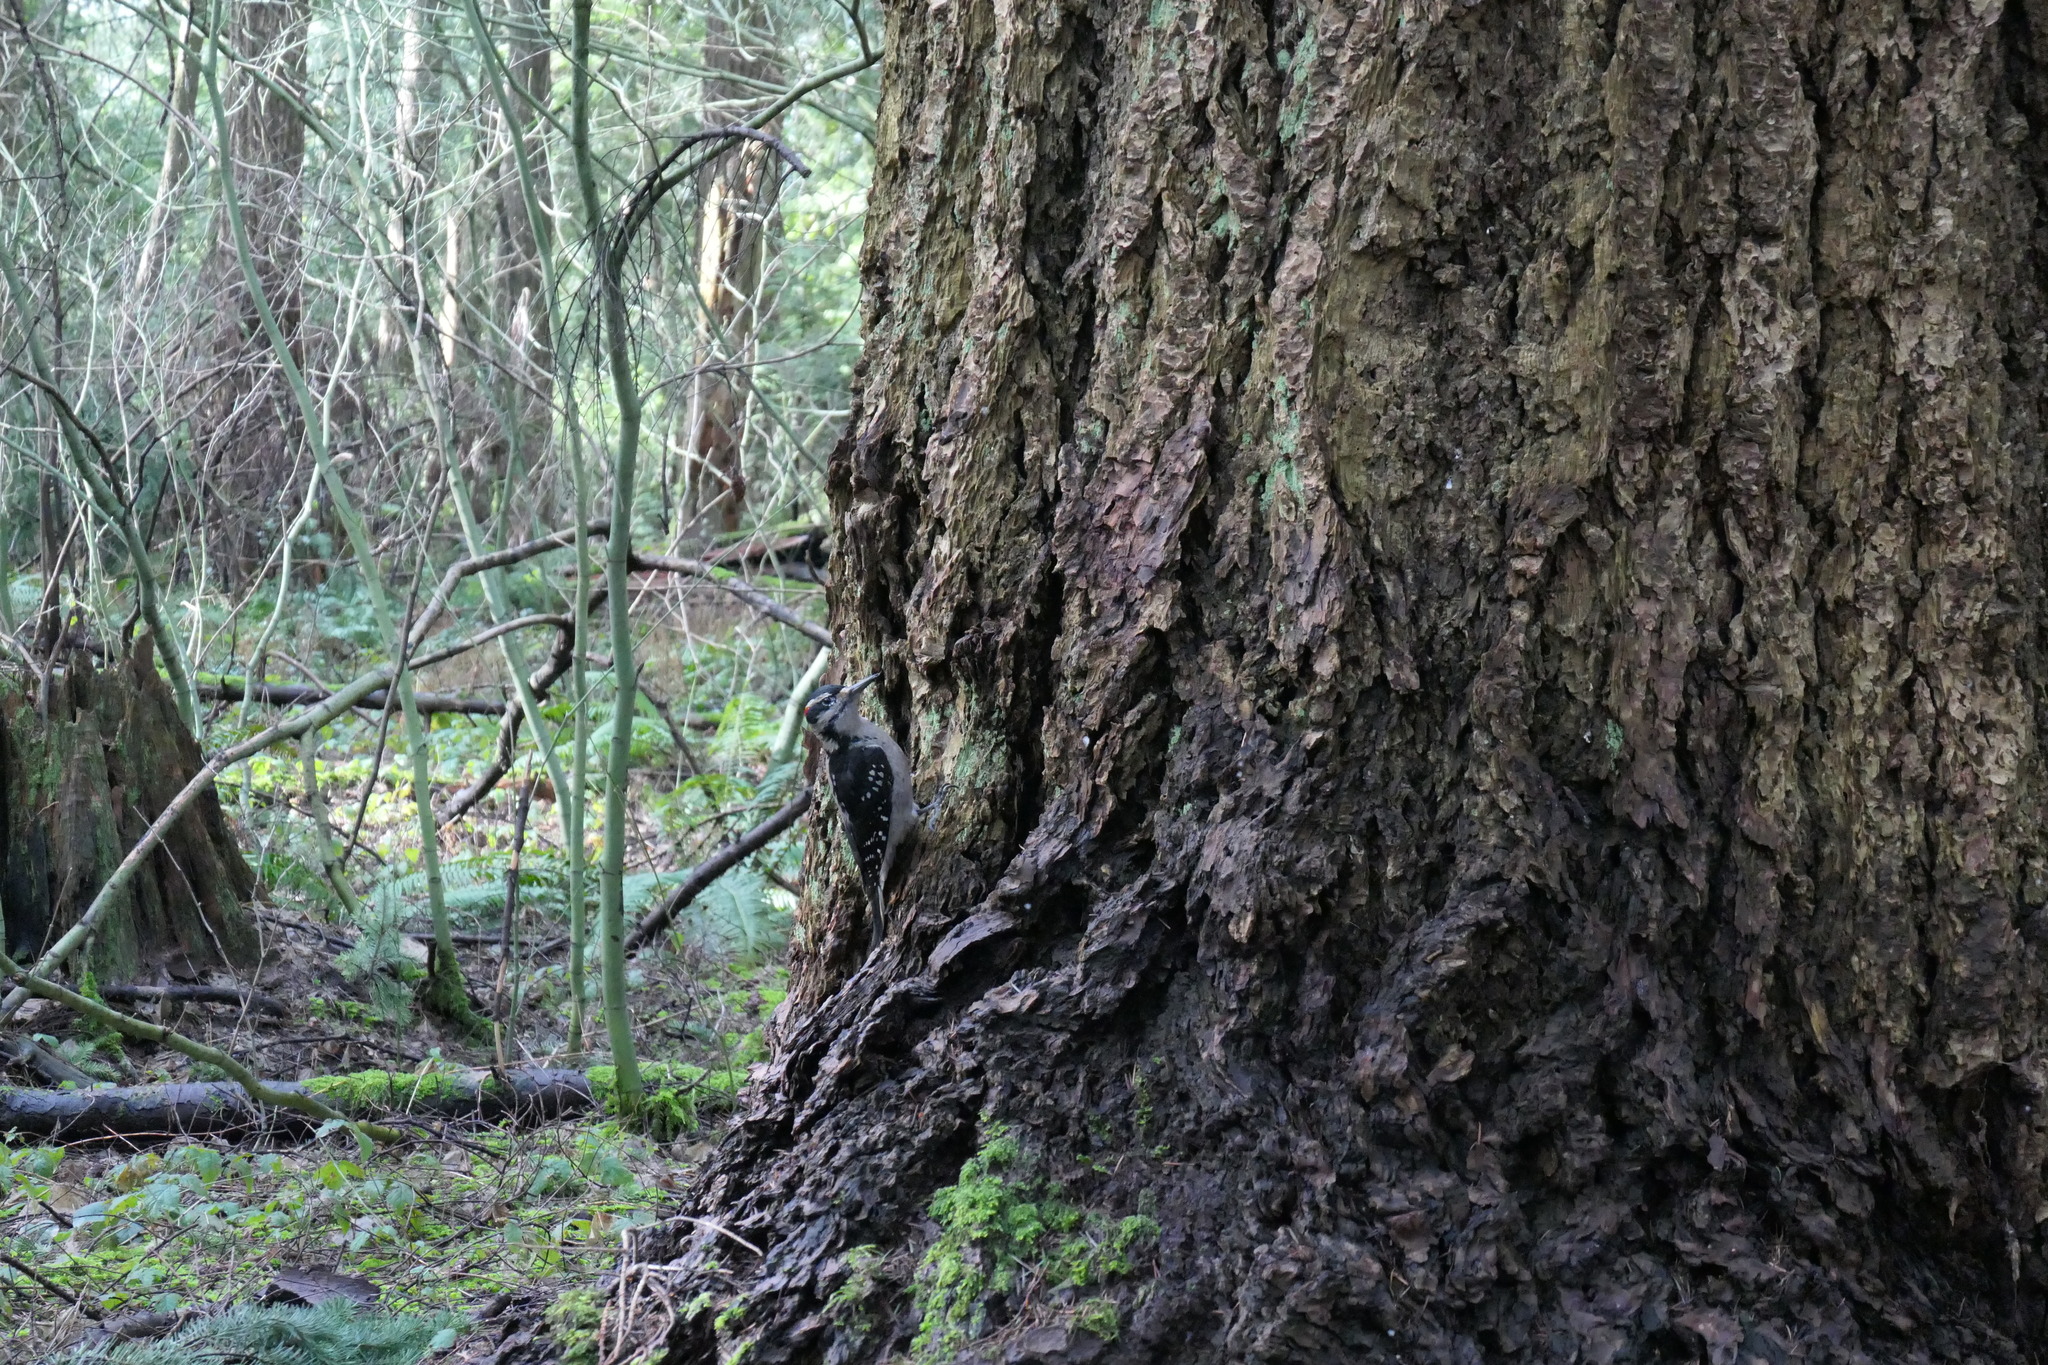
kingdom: Animalia
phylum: Chordata
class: Aves
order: Piciformes
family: Picidae
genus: Leuconotopicus
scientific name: Leuconotopicus villosus
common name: Hairy woodpecker
